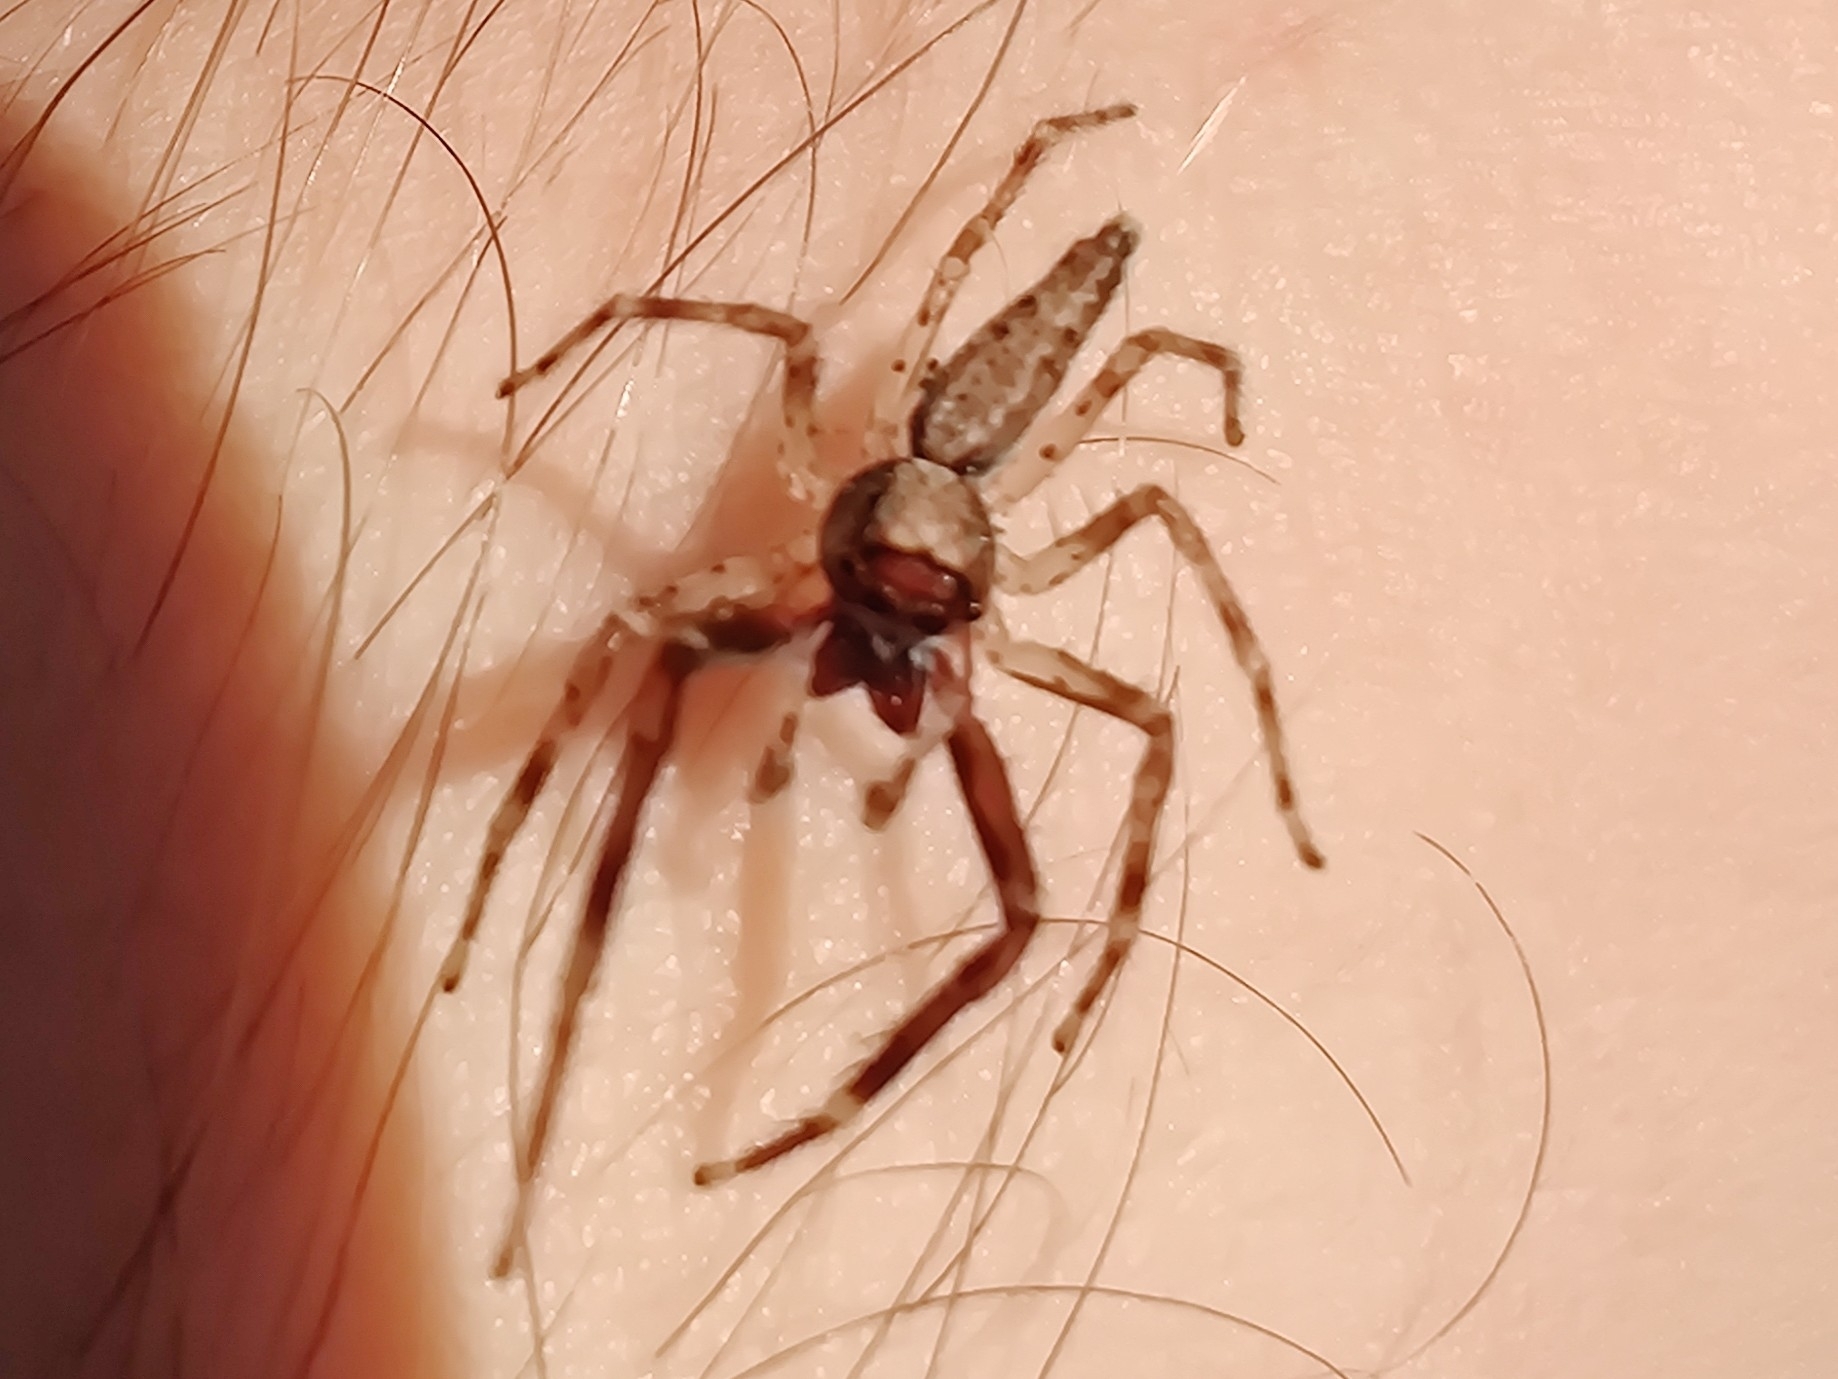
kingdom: Animalia
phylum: Arthropoda
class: Arachnida
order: Araneae
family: Salticidae
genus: Helpis
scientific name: Helpis minitabunda
